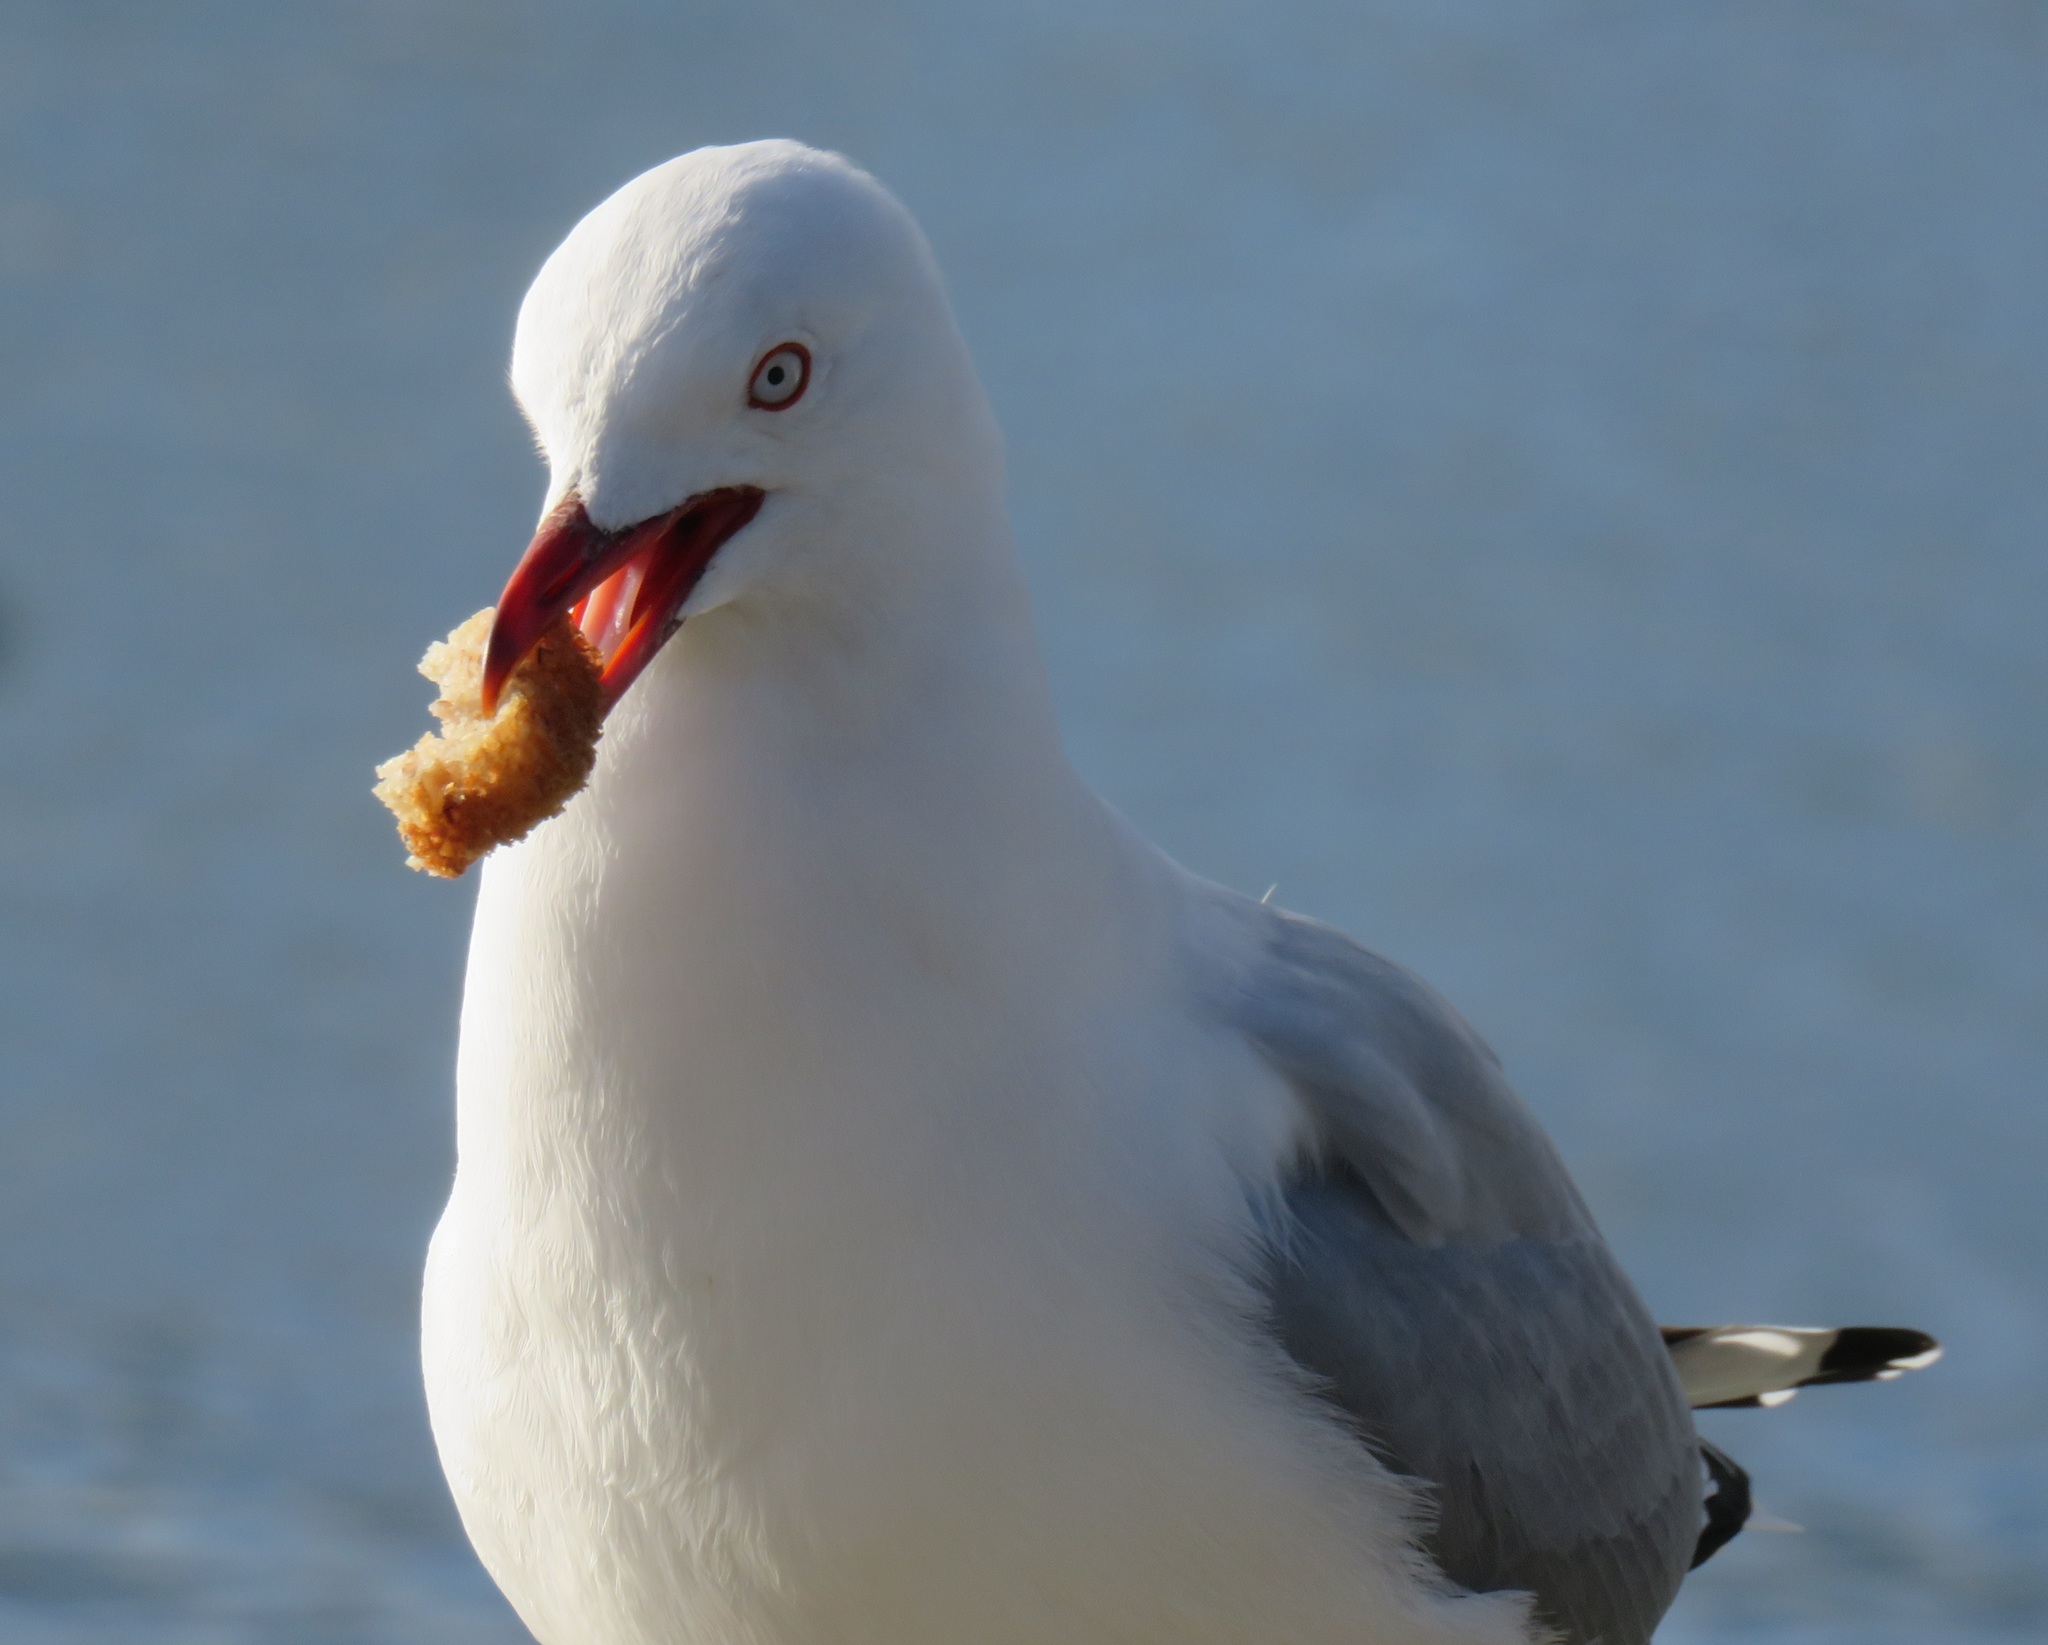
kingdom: Animalia
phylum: Chordata
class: Aves
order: Charadriiformes
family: Laridae
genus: Chroicocephalus
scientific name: Chroicocephalus novaehollandiae
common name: Silver gull
